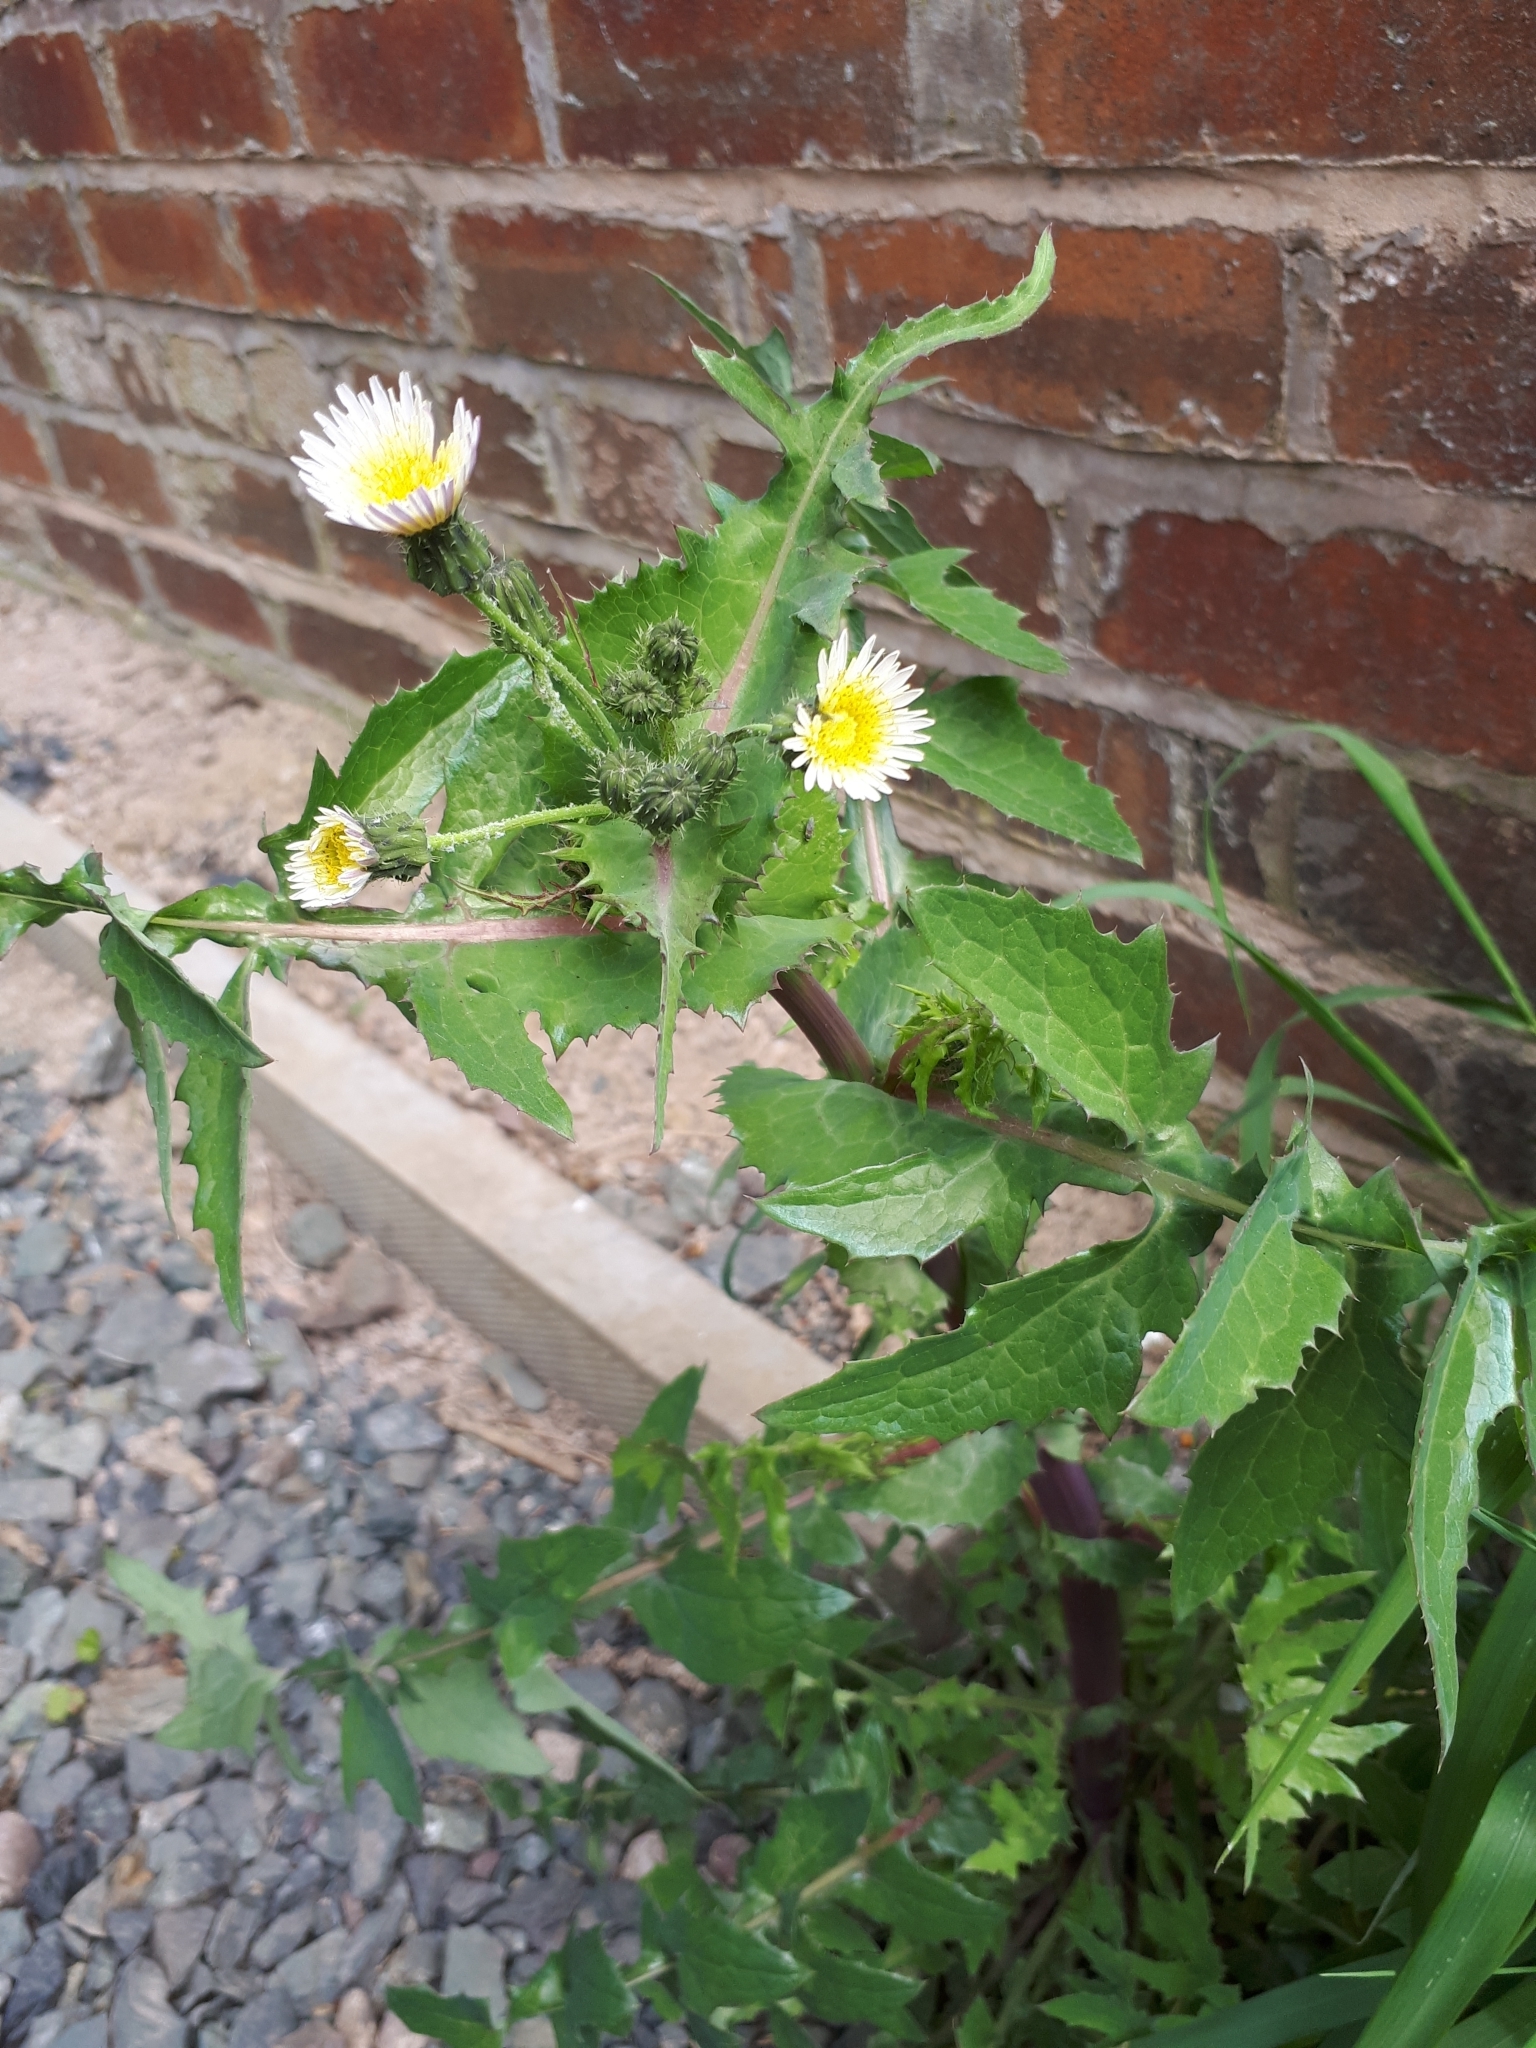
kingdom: Plantae
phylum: Tracheophyta
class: Magnoliopsida
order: Asterales
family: Asteraceae
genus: Sonchus
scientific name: Sonchus oleraceus
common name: Common sowthistle
